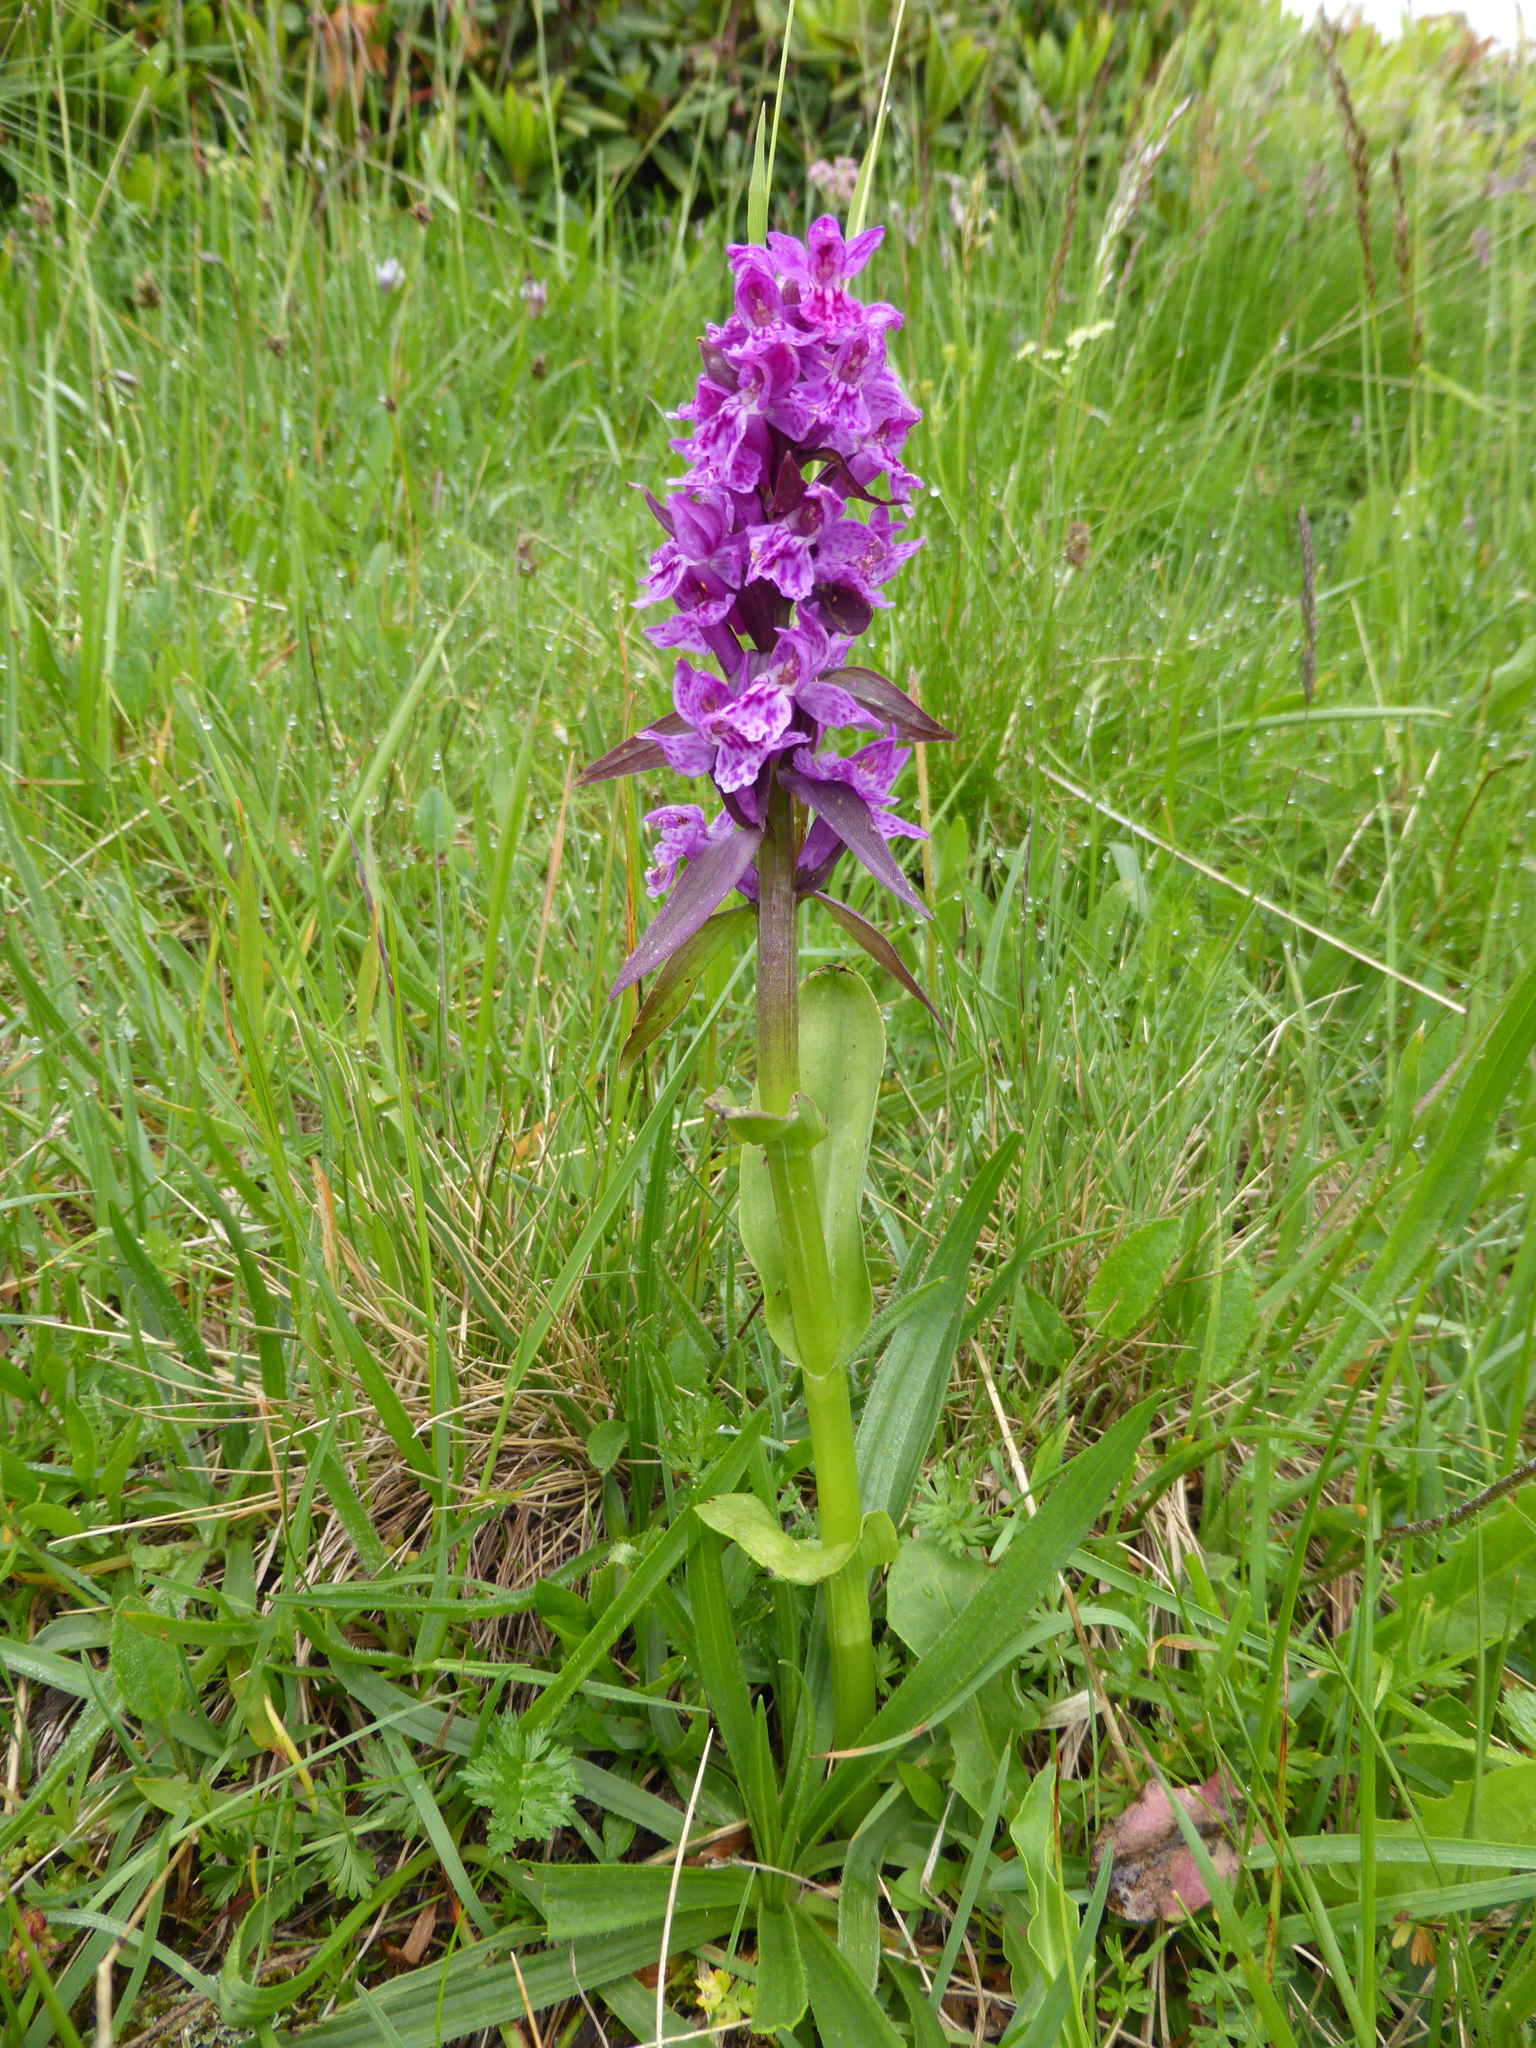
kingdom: Plantae
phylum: Tracheophyta
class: Liliopsida
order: Asparagales
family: Orchidaceae
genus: Dactylorhiza
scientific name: Dactylorhiza euxina
